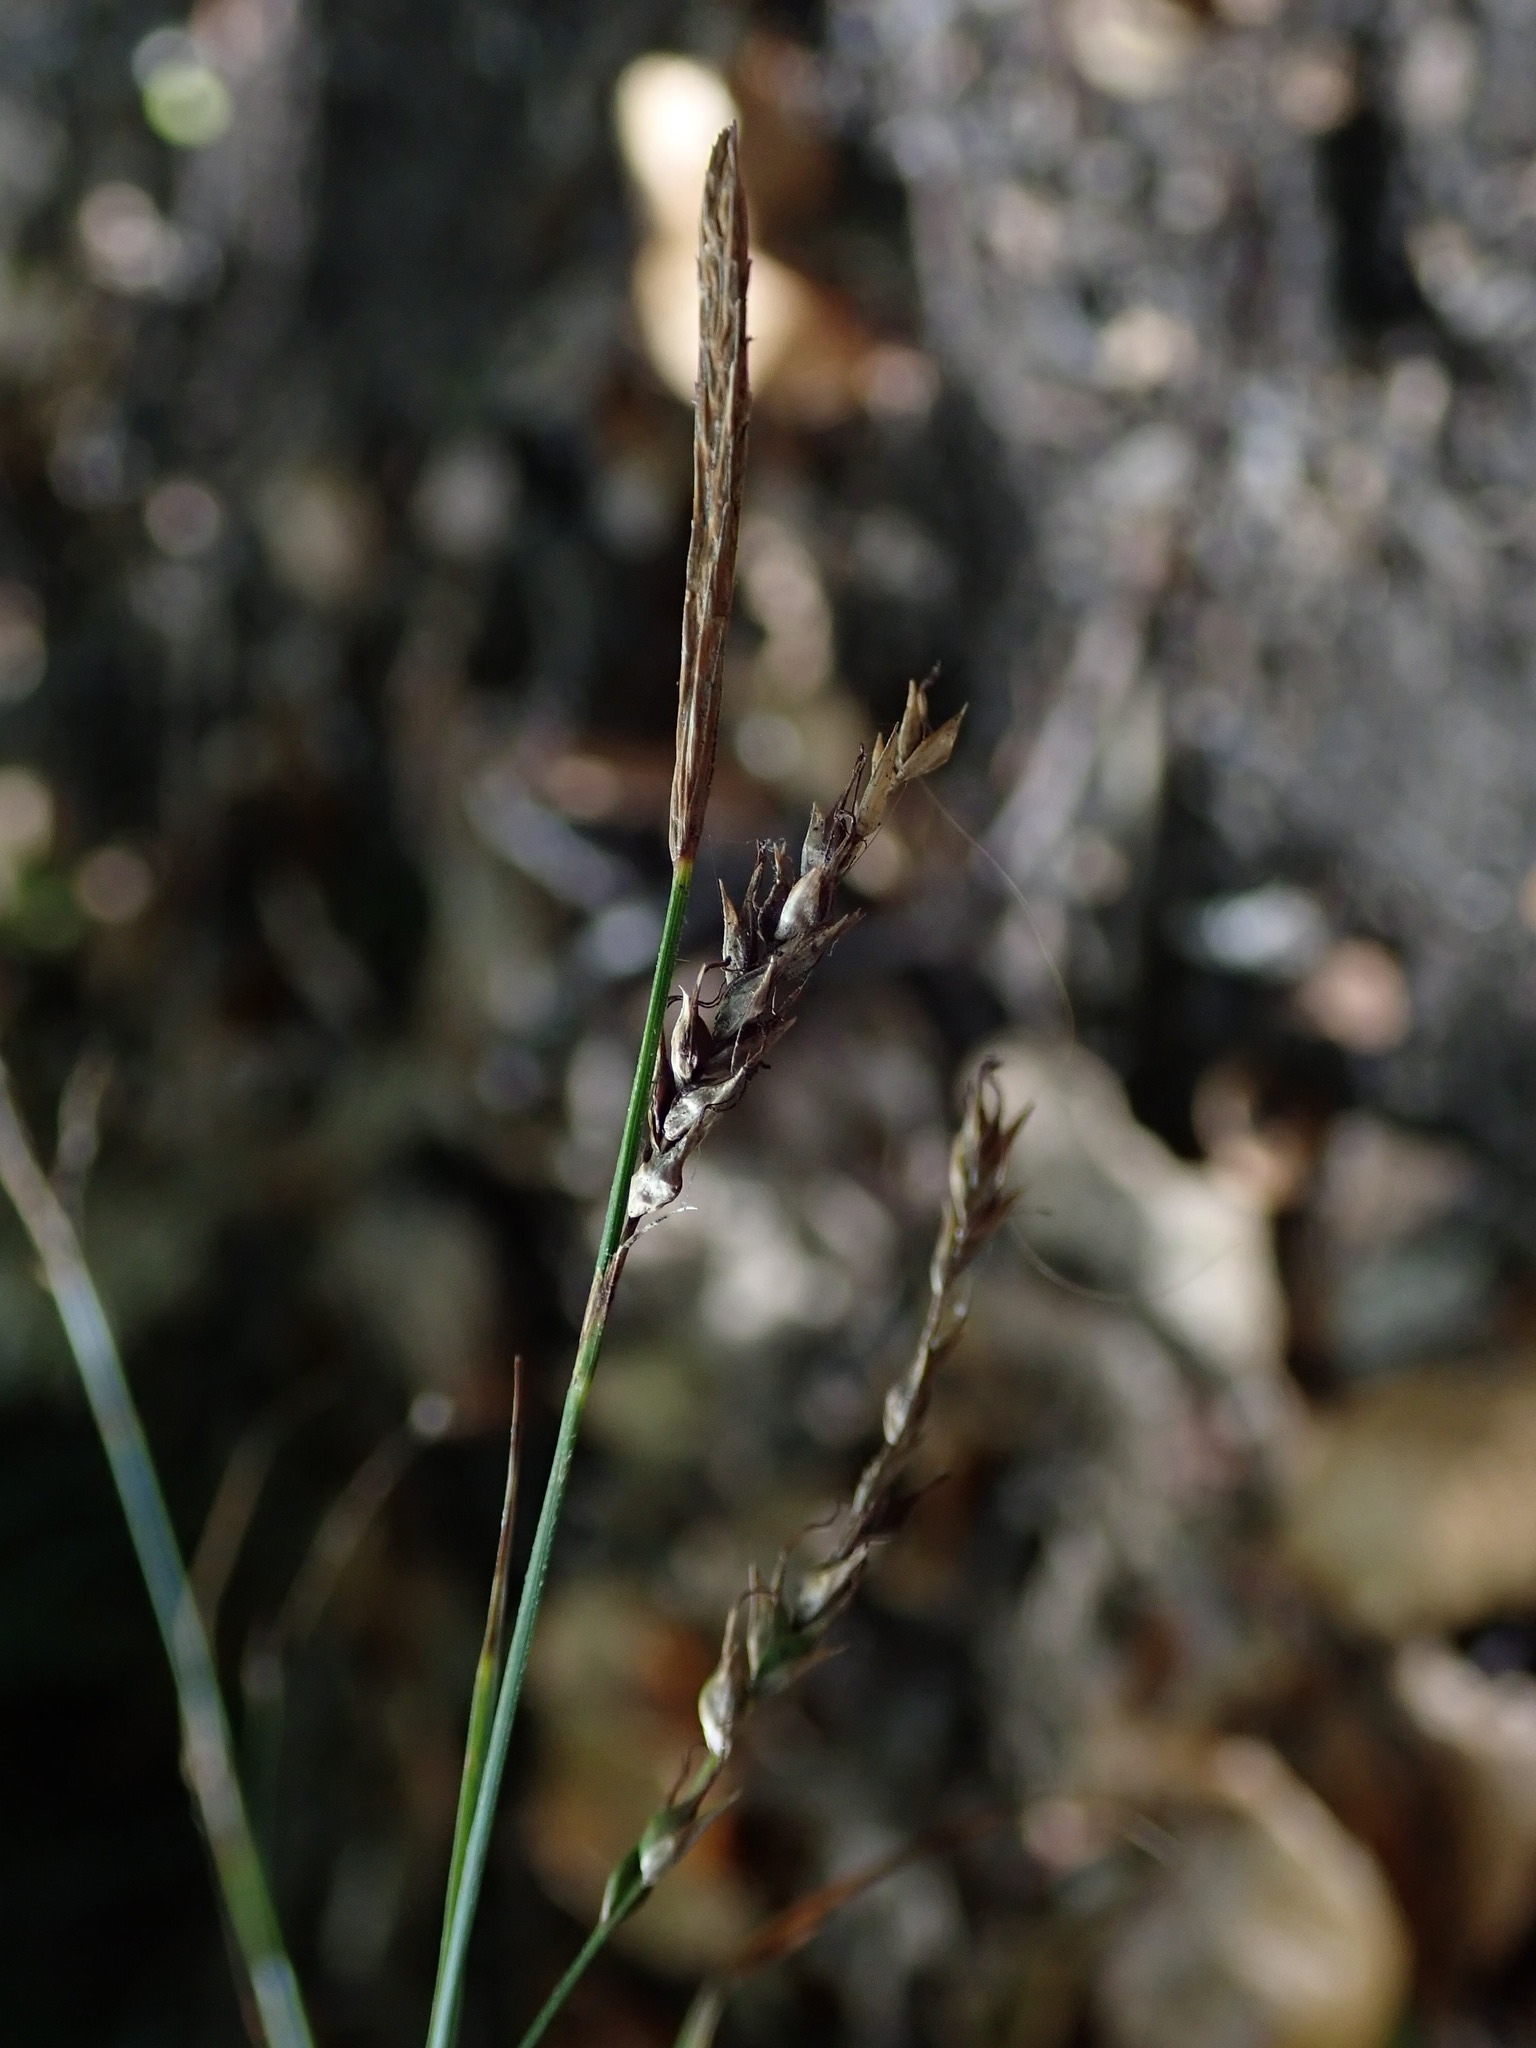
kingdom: Plantae
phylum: Tracheophyta
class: Liliopsida
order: Poales
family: Cyperaceae
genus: Carex
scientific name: Carex sylvatica
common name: Wood-sedge
